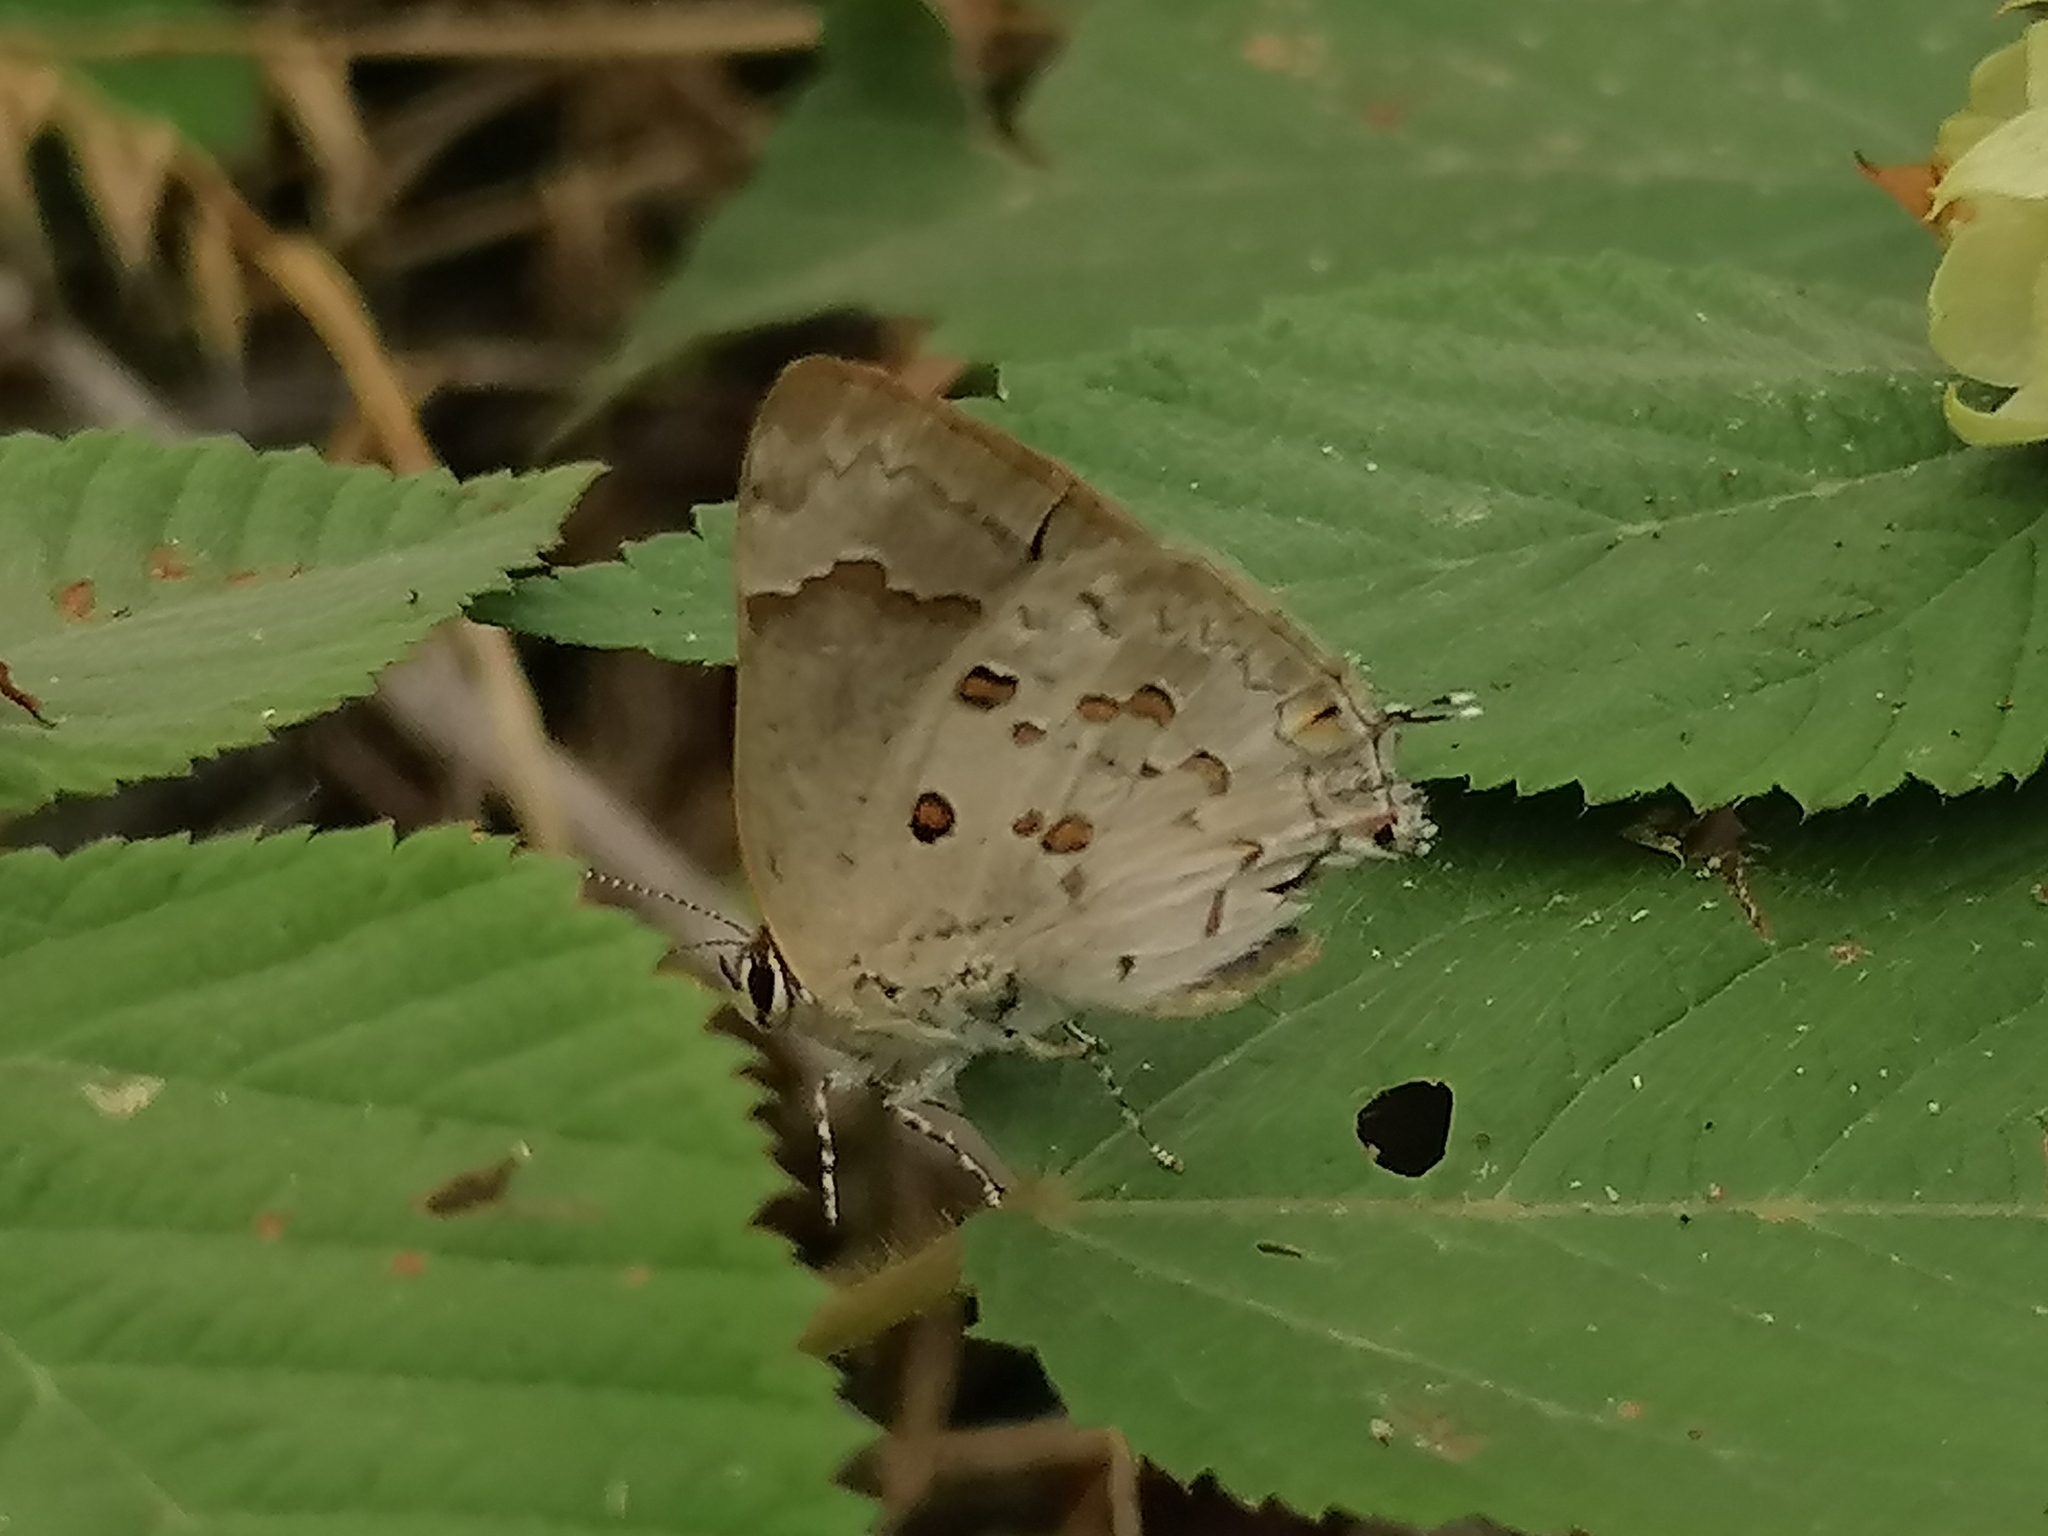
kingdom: Animalia
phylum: Arthropoda
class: Insecta
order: Lepidoptera
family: Lycaenidae
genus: Tmolus
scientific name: Tmolus echion
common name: Red-spotted hairstreak
